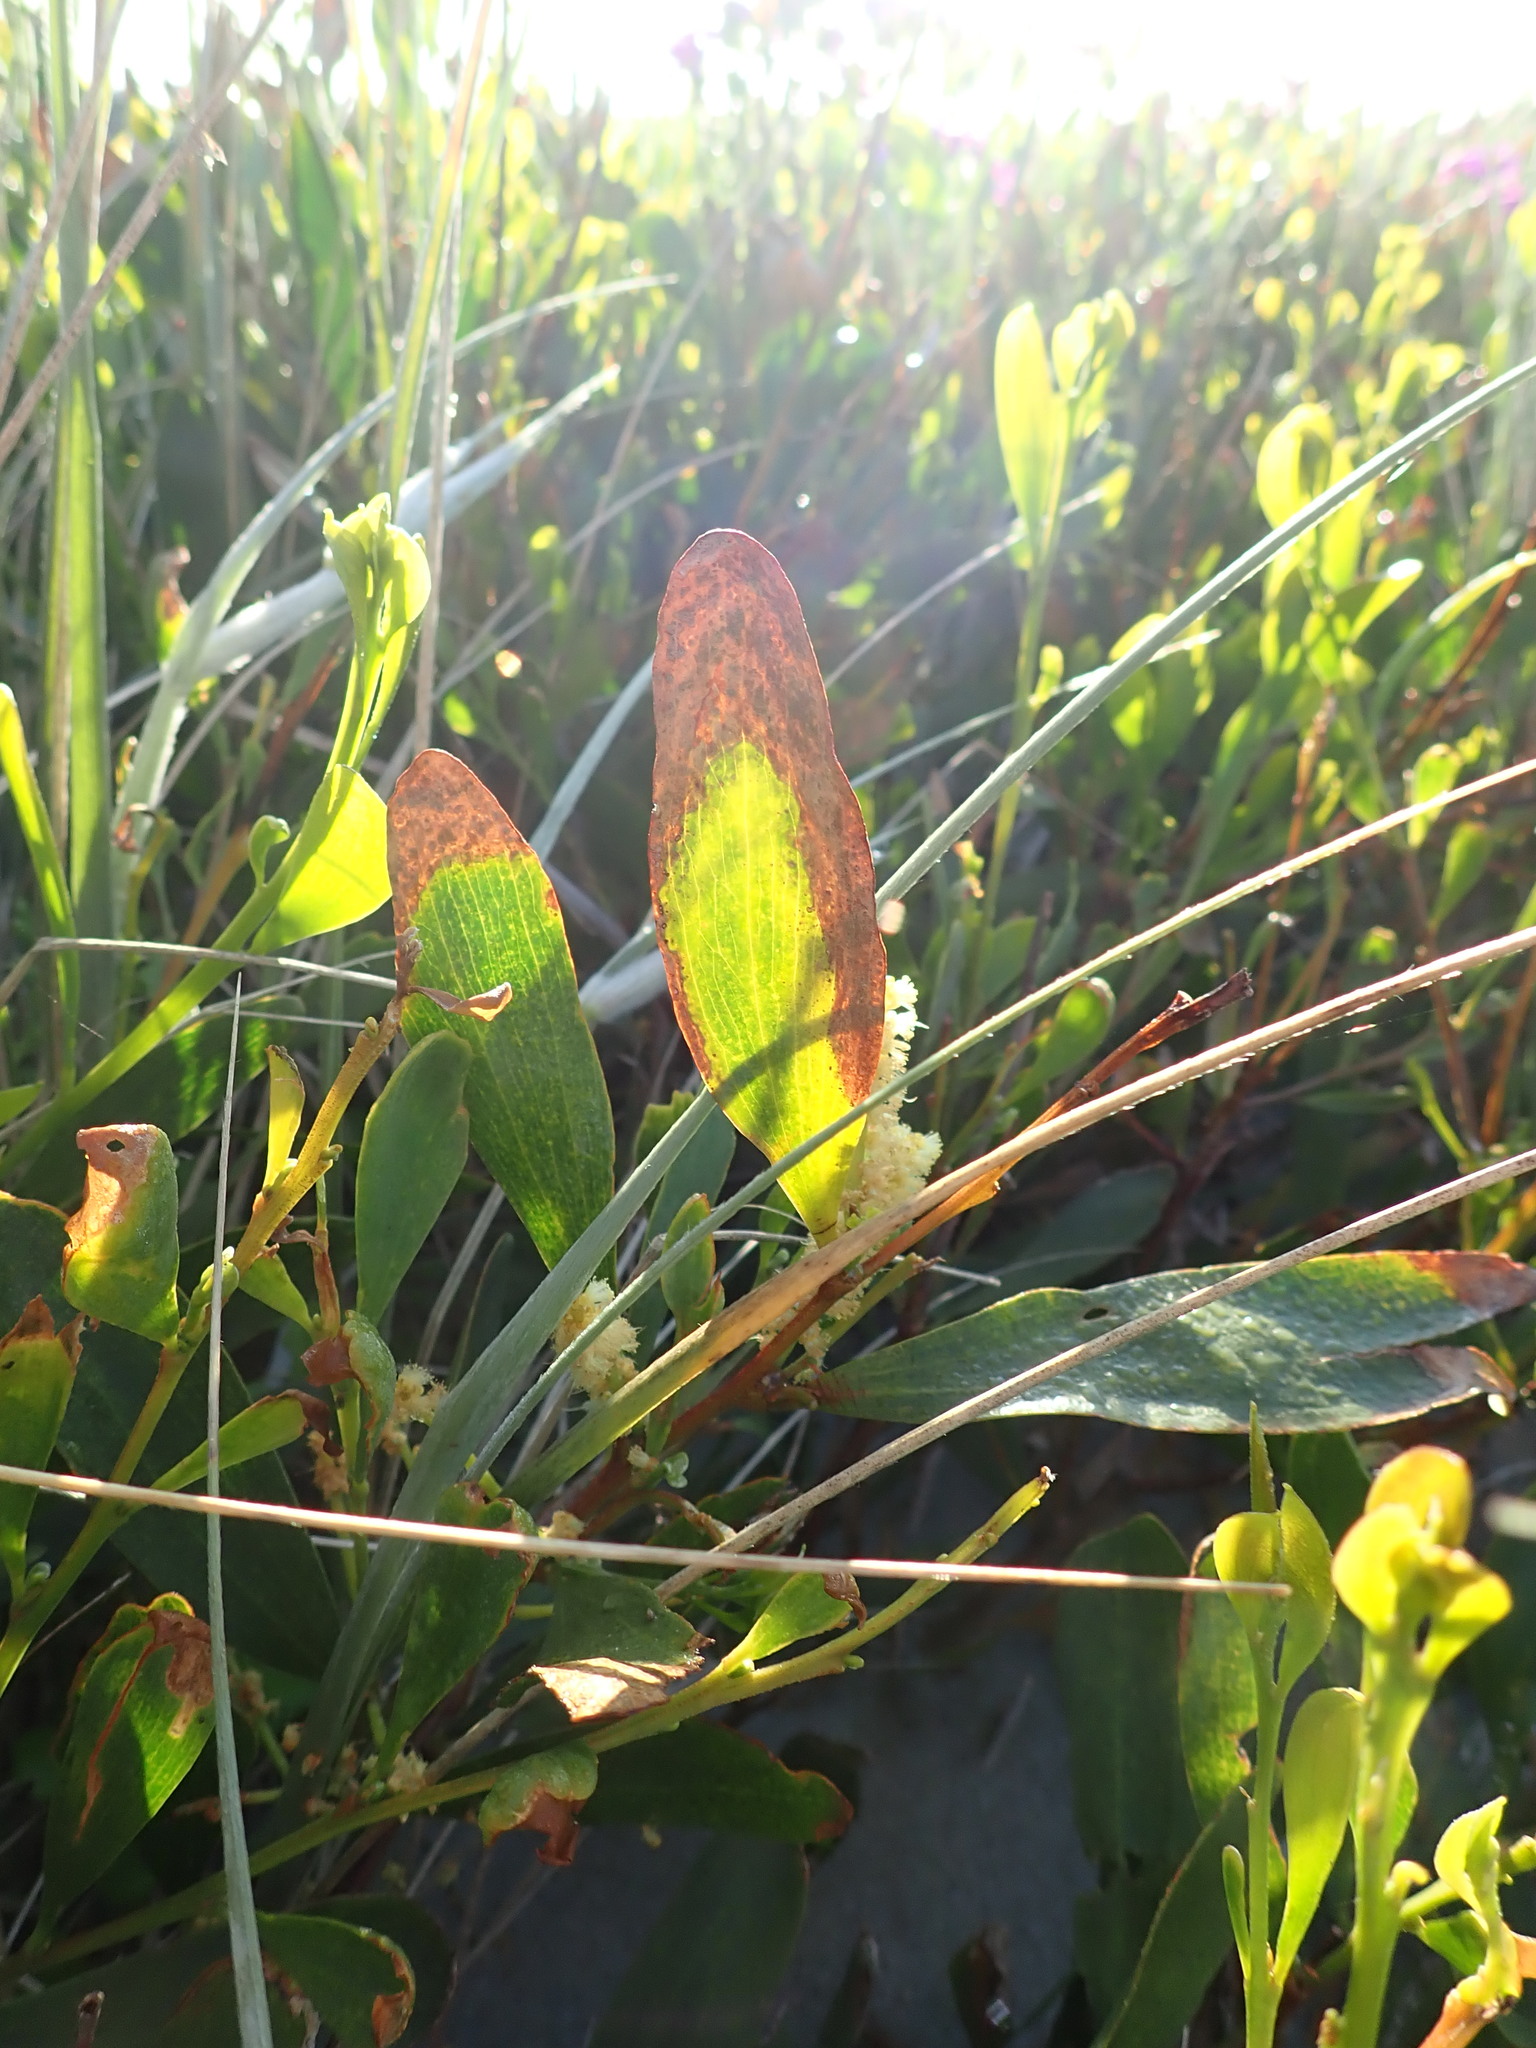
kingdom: Plantae
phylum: Tracheophyta
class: Magnoliopsida
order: Fabales
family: Fabaceae
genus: Acacia
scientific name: Acacia longifolia
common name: Sydney golden wattle
